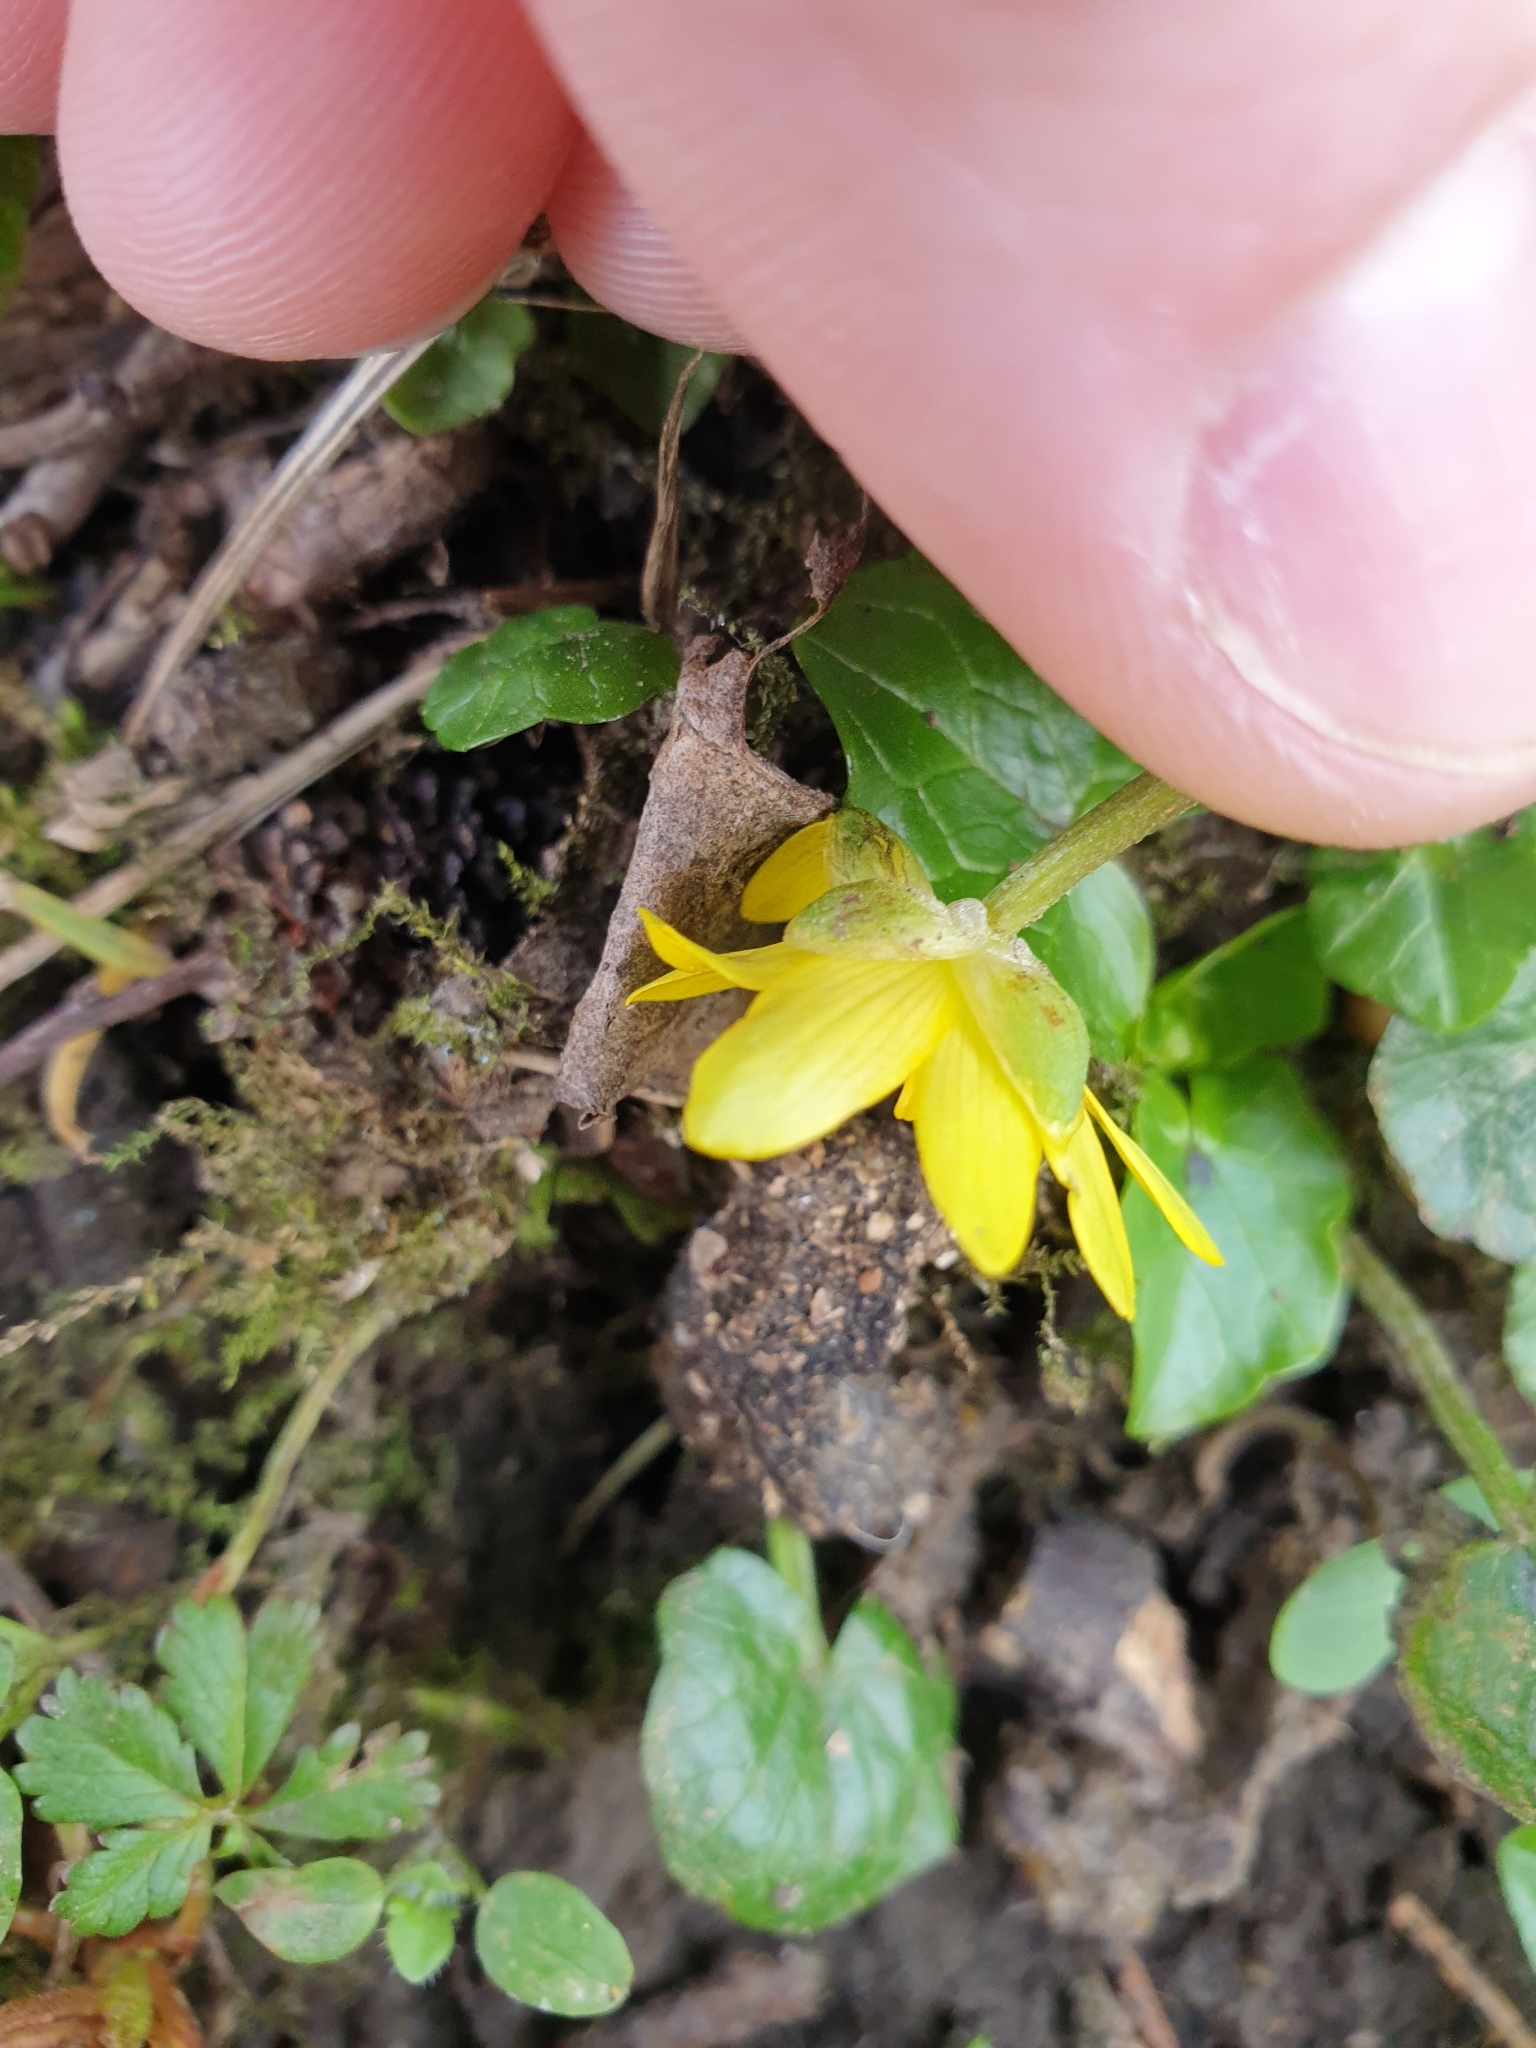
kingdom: Plantae
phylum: Tracheophyta
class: Magnoliopsida
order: Ranunculales
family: Ranunculaceae
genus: Ficaria
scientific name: Ficaria verna
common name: Lesser celandine
